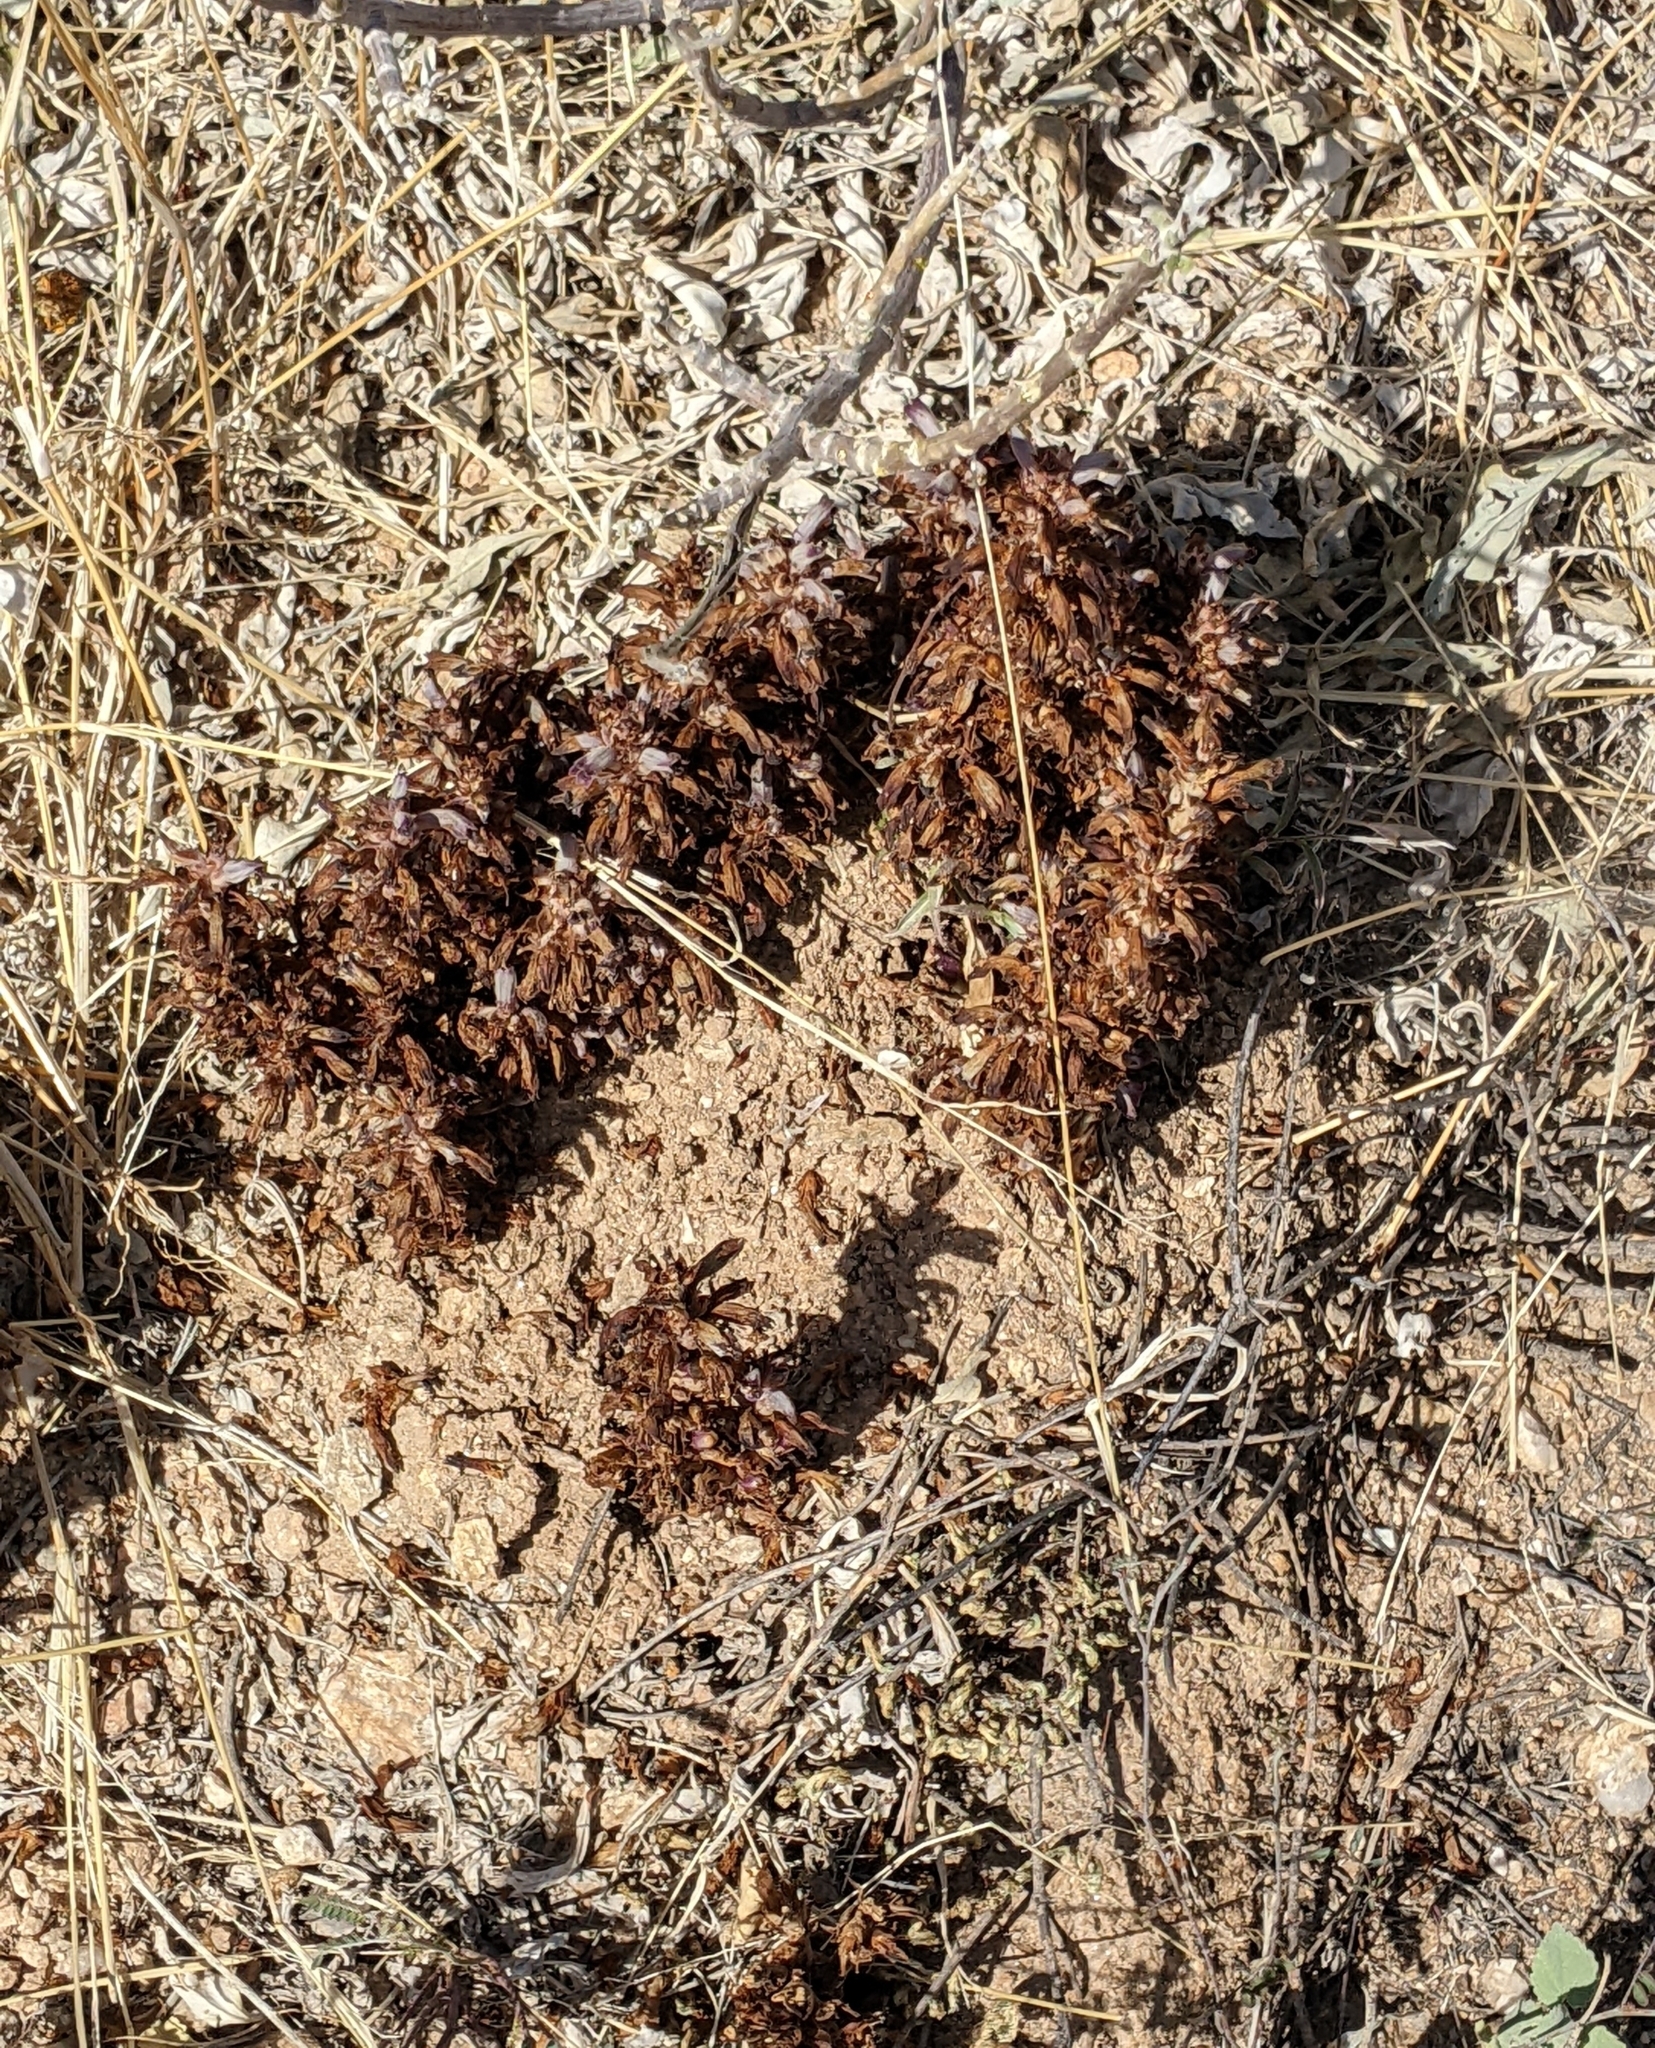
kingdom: Plantae
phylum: Tracheophyta
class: Magnoliopsida
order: Lamiales
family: Orobanchaceae
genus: Aphyllon
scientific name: Aphyllon cooperi
